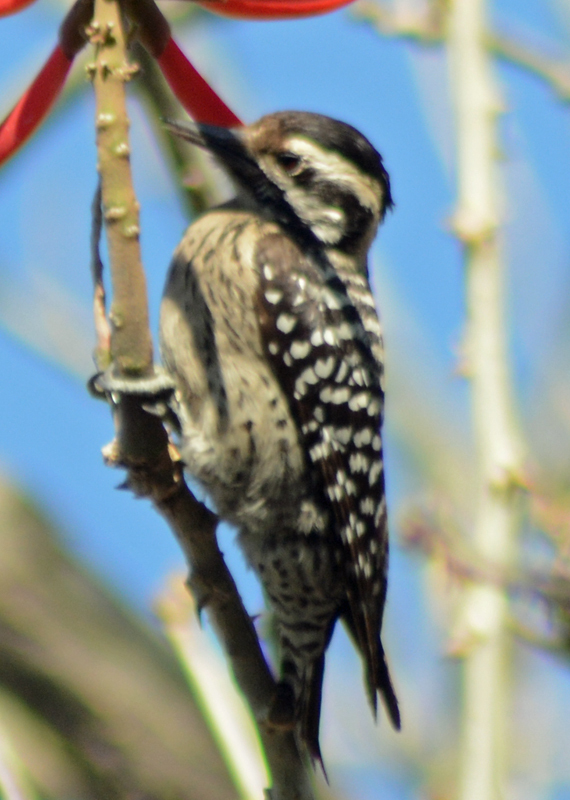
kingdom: Animalia
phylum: Chordata
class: Aves
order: Piciformes
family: Picidae
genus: Dryobates
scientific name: Dryobates scalaris
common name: Ladder-backed woodpecker
